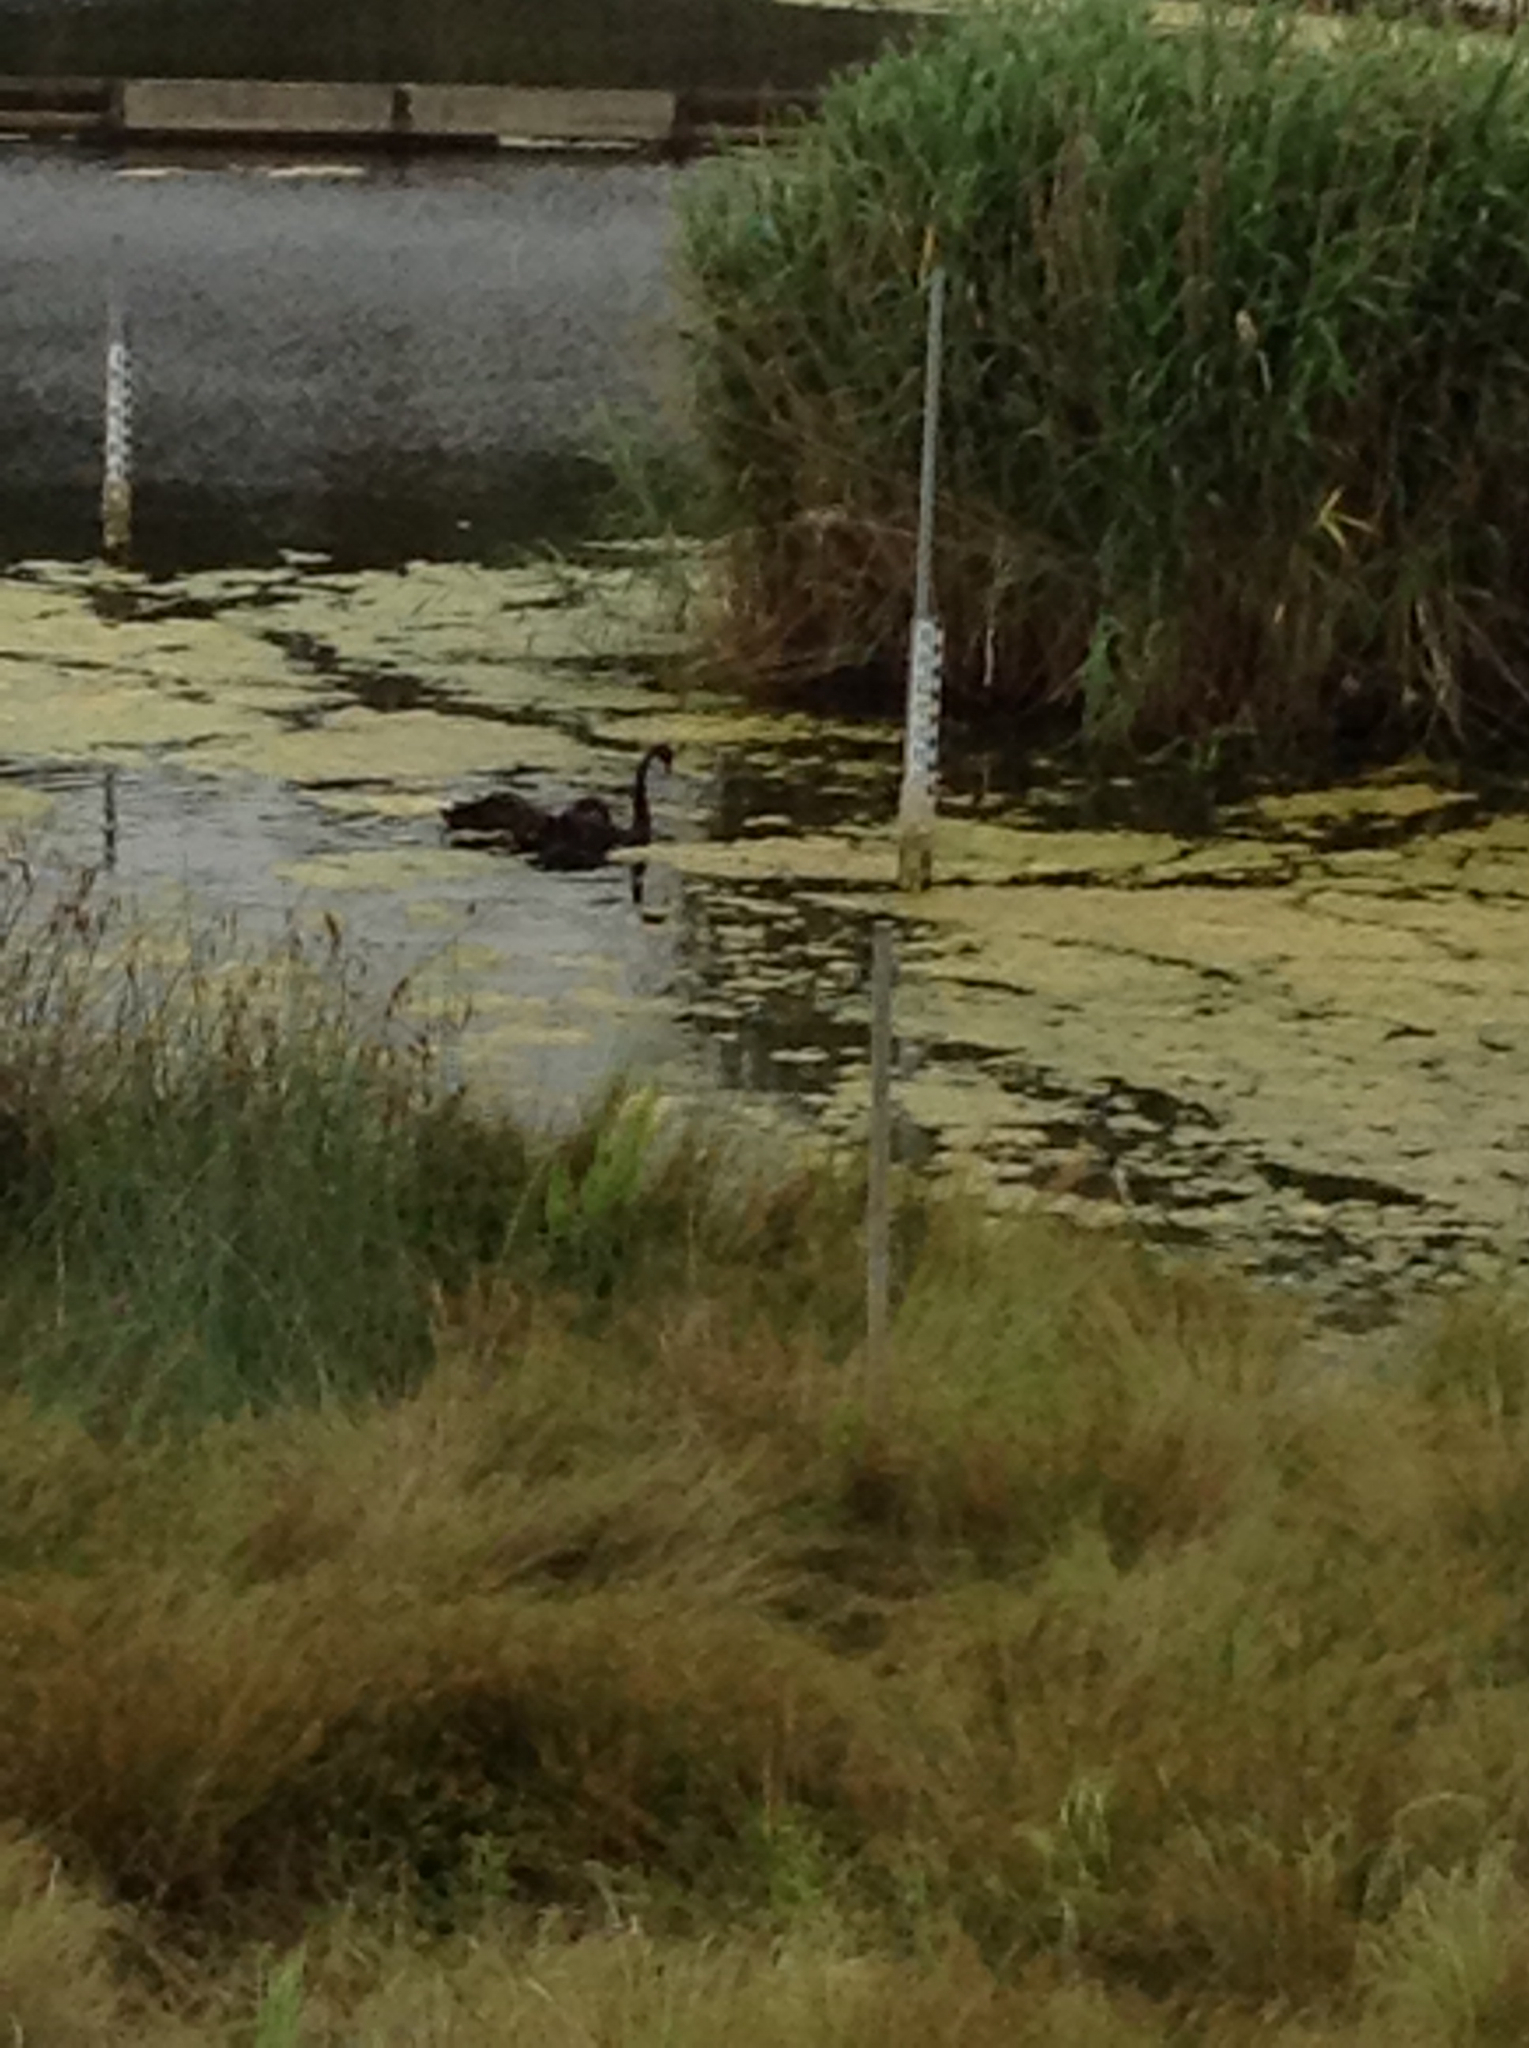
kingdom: Animalia
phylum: Chordata
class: Aves
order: Anseriformes
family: Anatidae
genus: Cygnus
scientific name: Cygnus atratus
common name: Black swan
